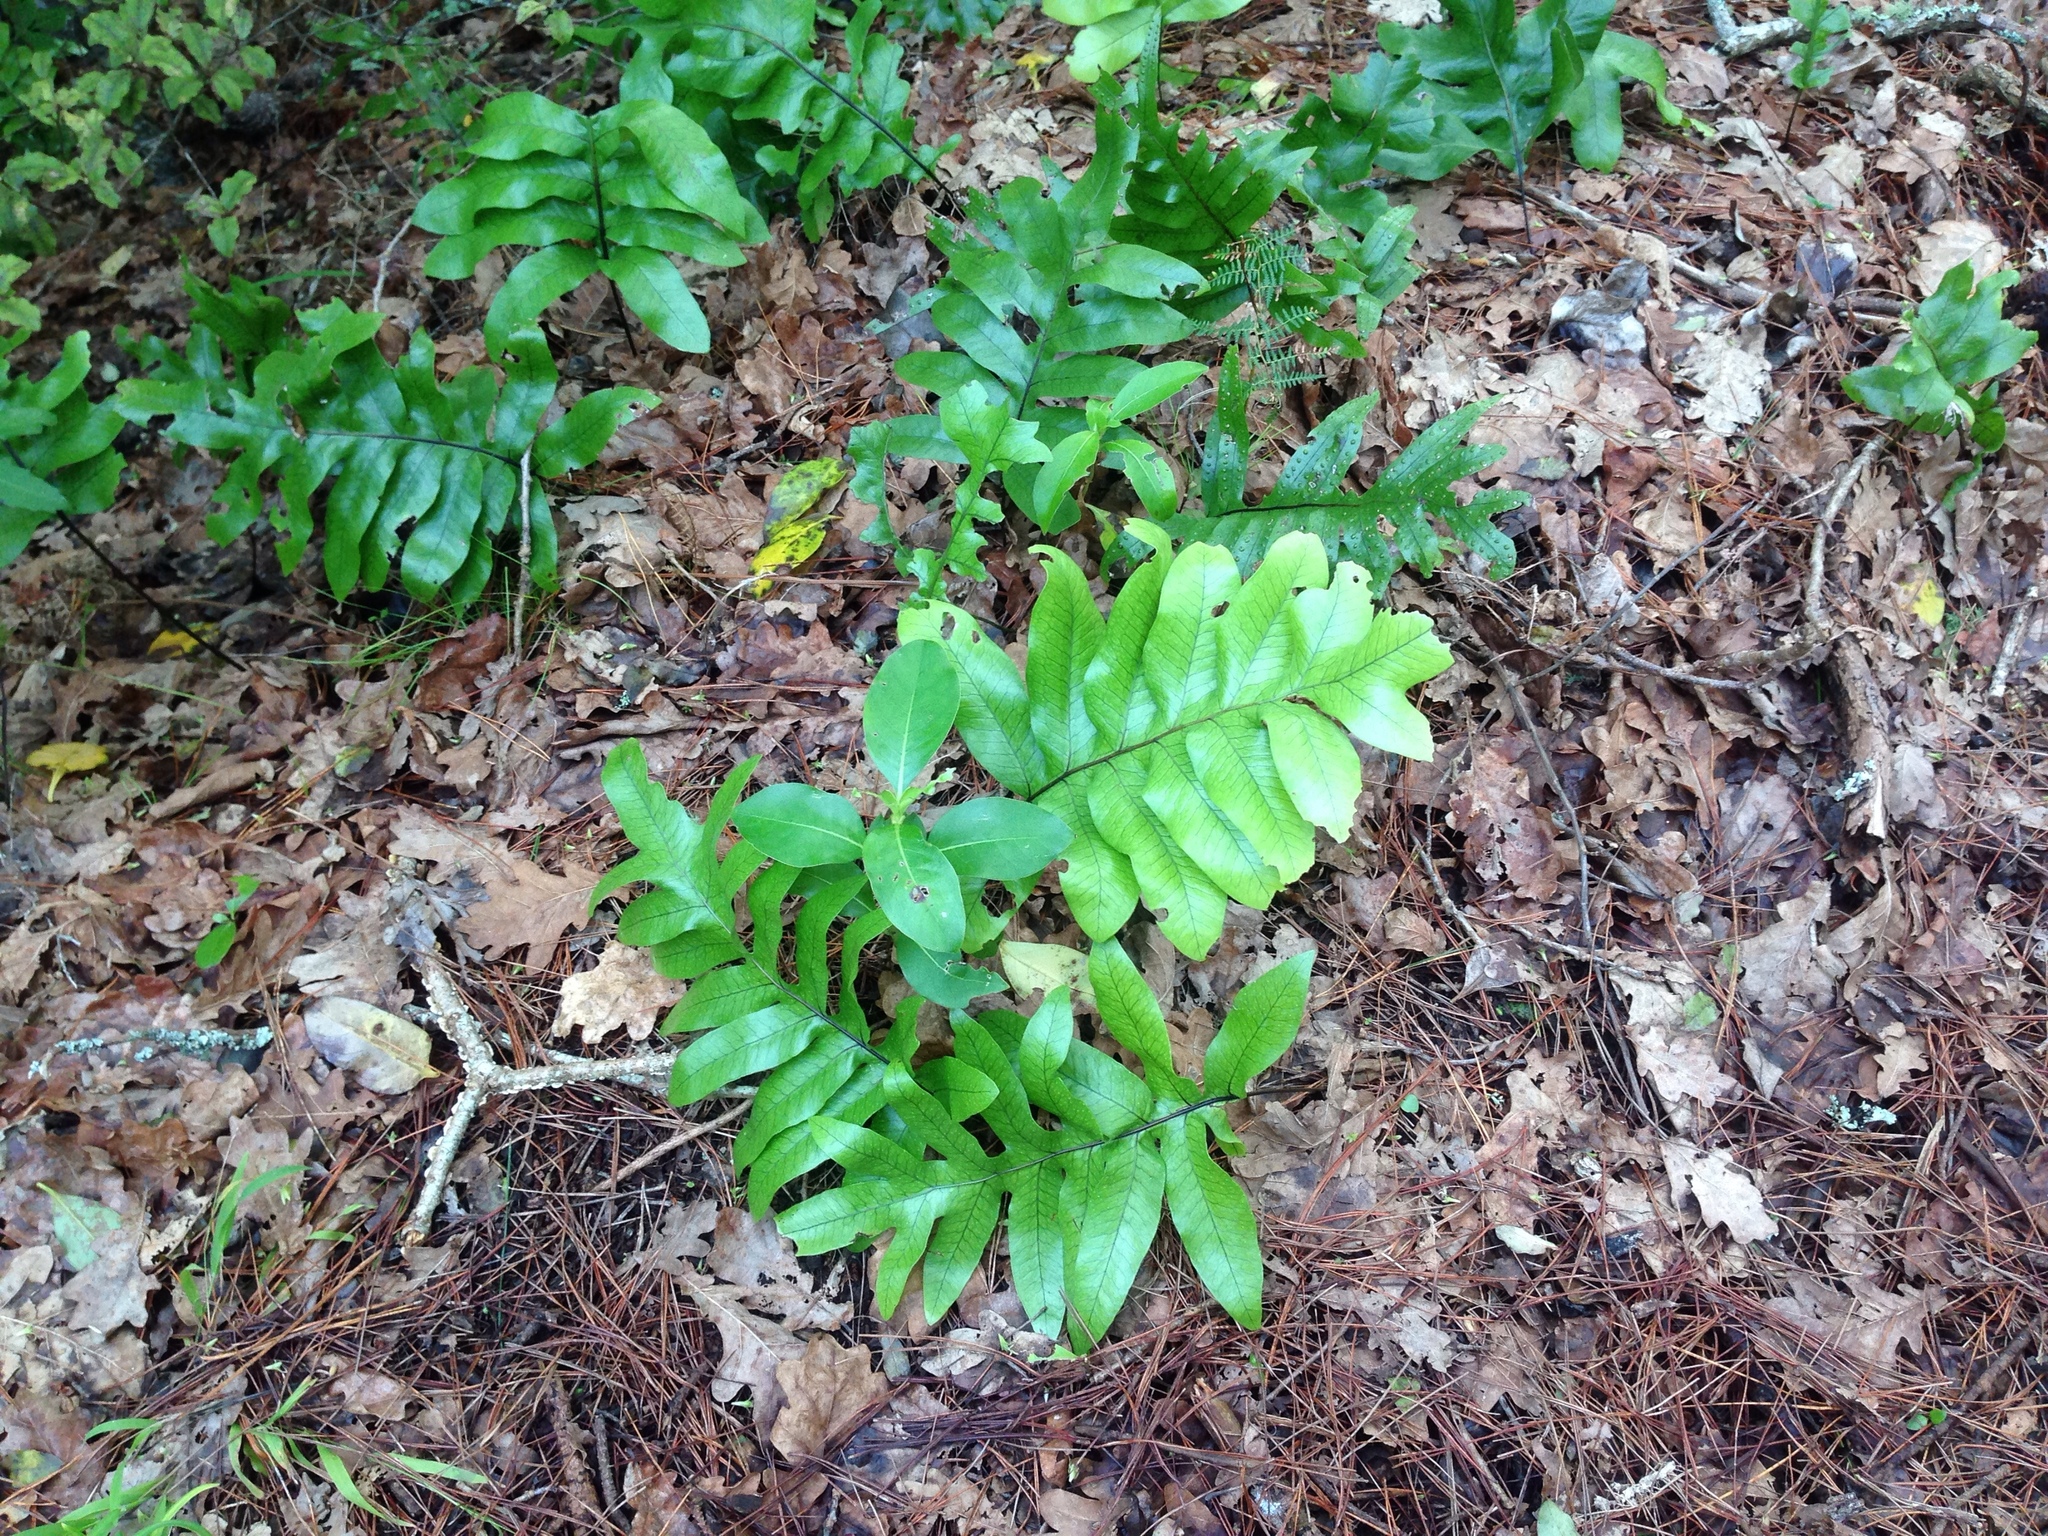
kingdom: Plantae
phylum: Tracheophyta
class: Polypodiopsida
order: Polypodiales
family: Polypodiaceae
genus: Lecanopteris
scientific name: Lecanopteris pustulata
